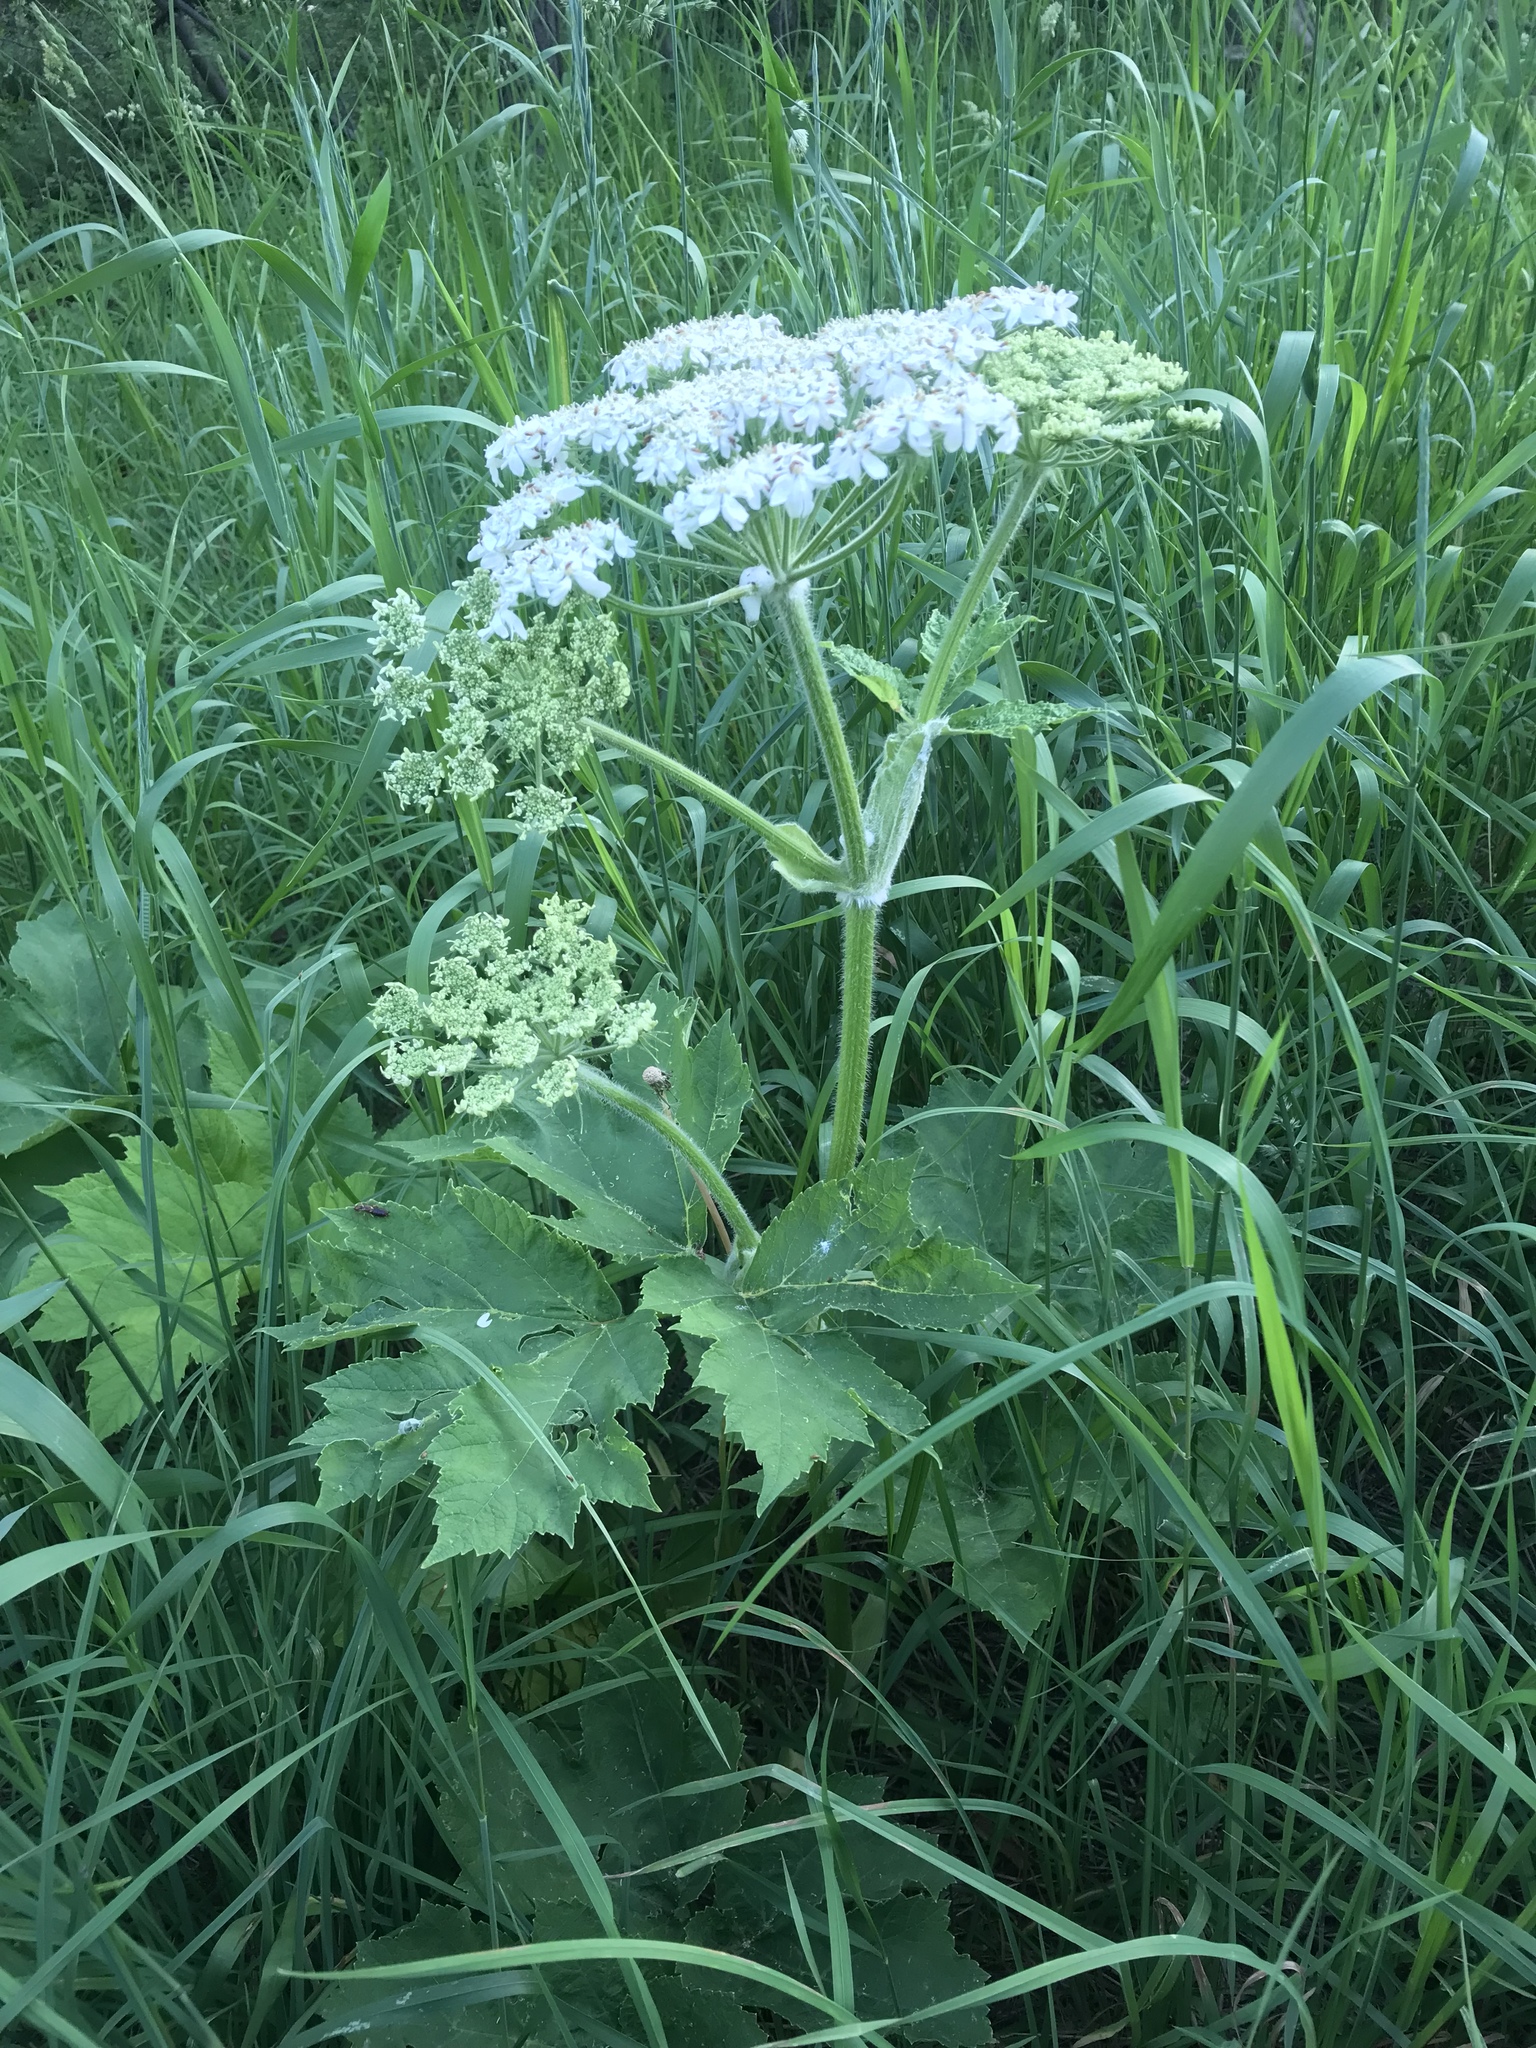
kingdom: Plantae
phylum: Tracheophyta
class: Magnoliopsida
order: Apiales
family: Apiaceae
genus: Heracleum
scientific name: Heracleum maximum
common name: American cow parsnip
